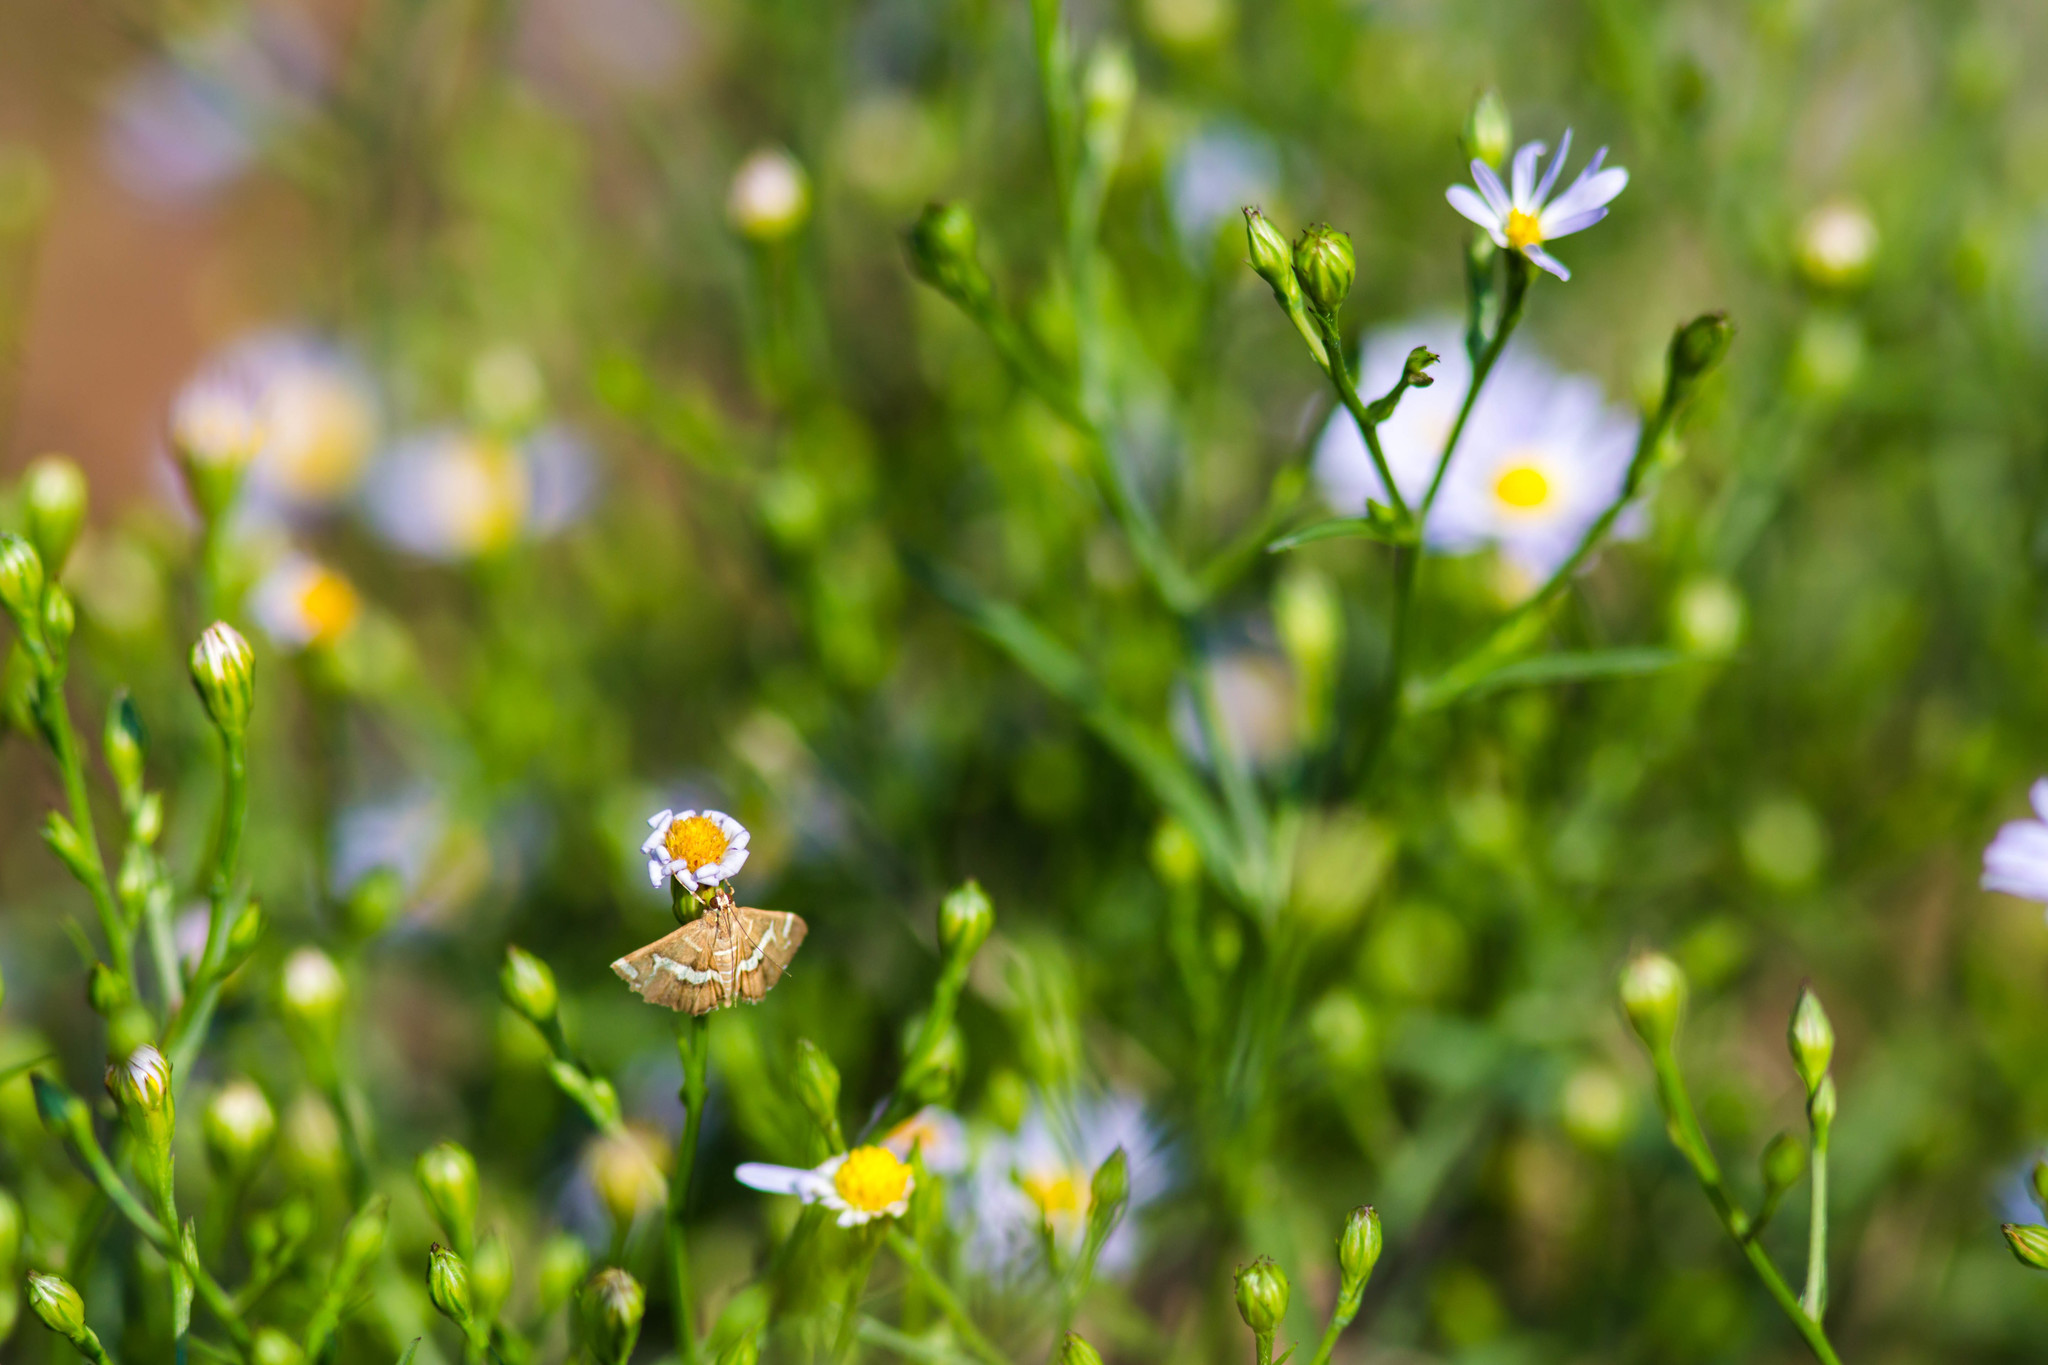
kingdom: Animalia
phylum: Arthropoda
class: Insecta
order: Lepidoptera
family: Crambidae
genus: Spoladea
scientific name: Spoladea recurvalis
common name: Beet webworm moth
